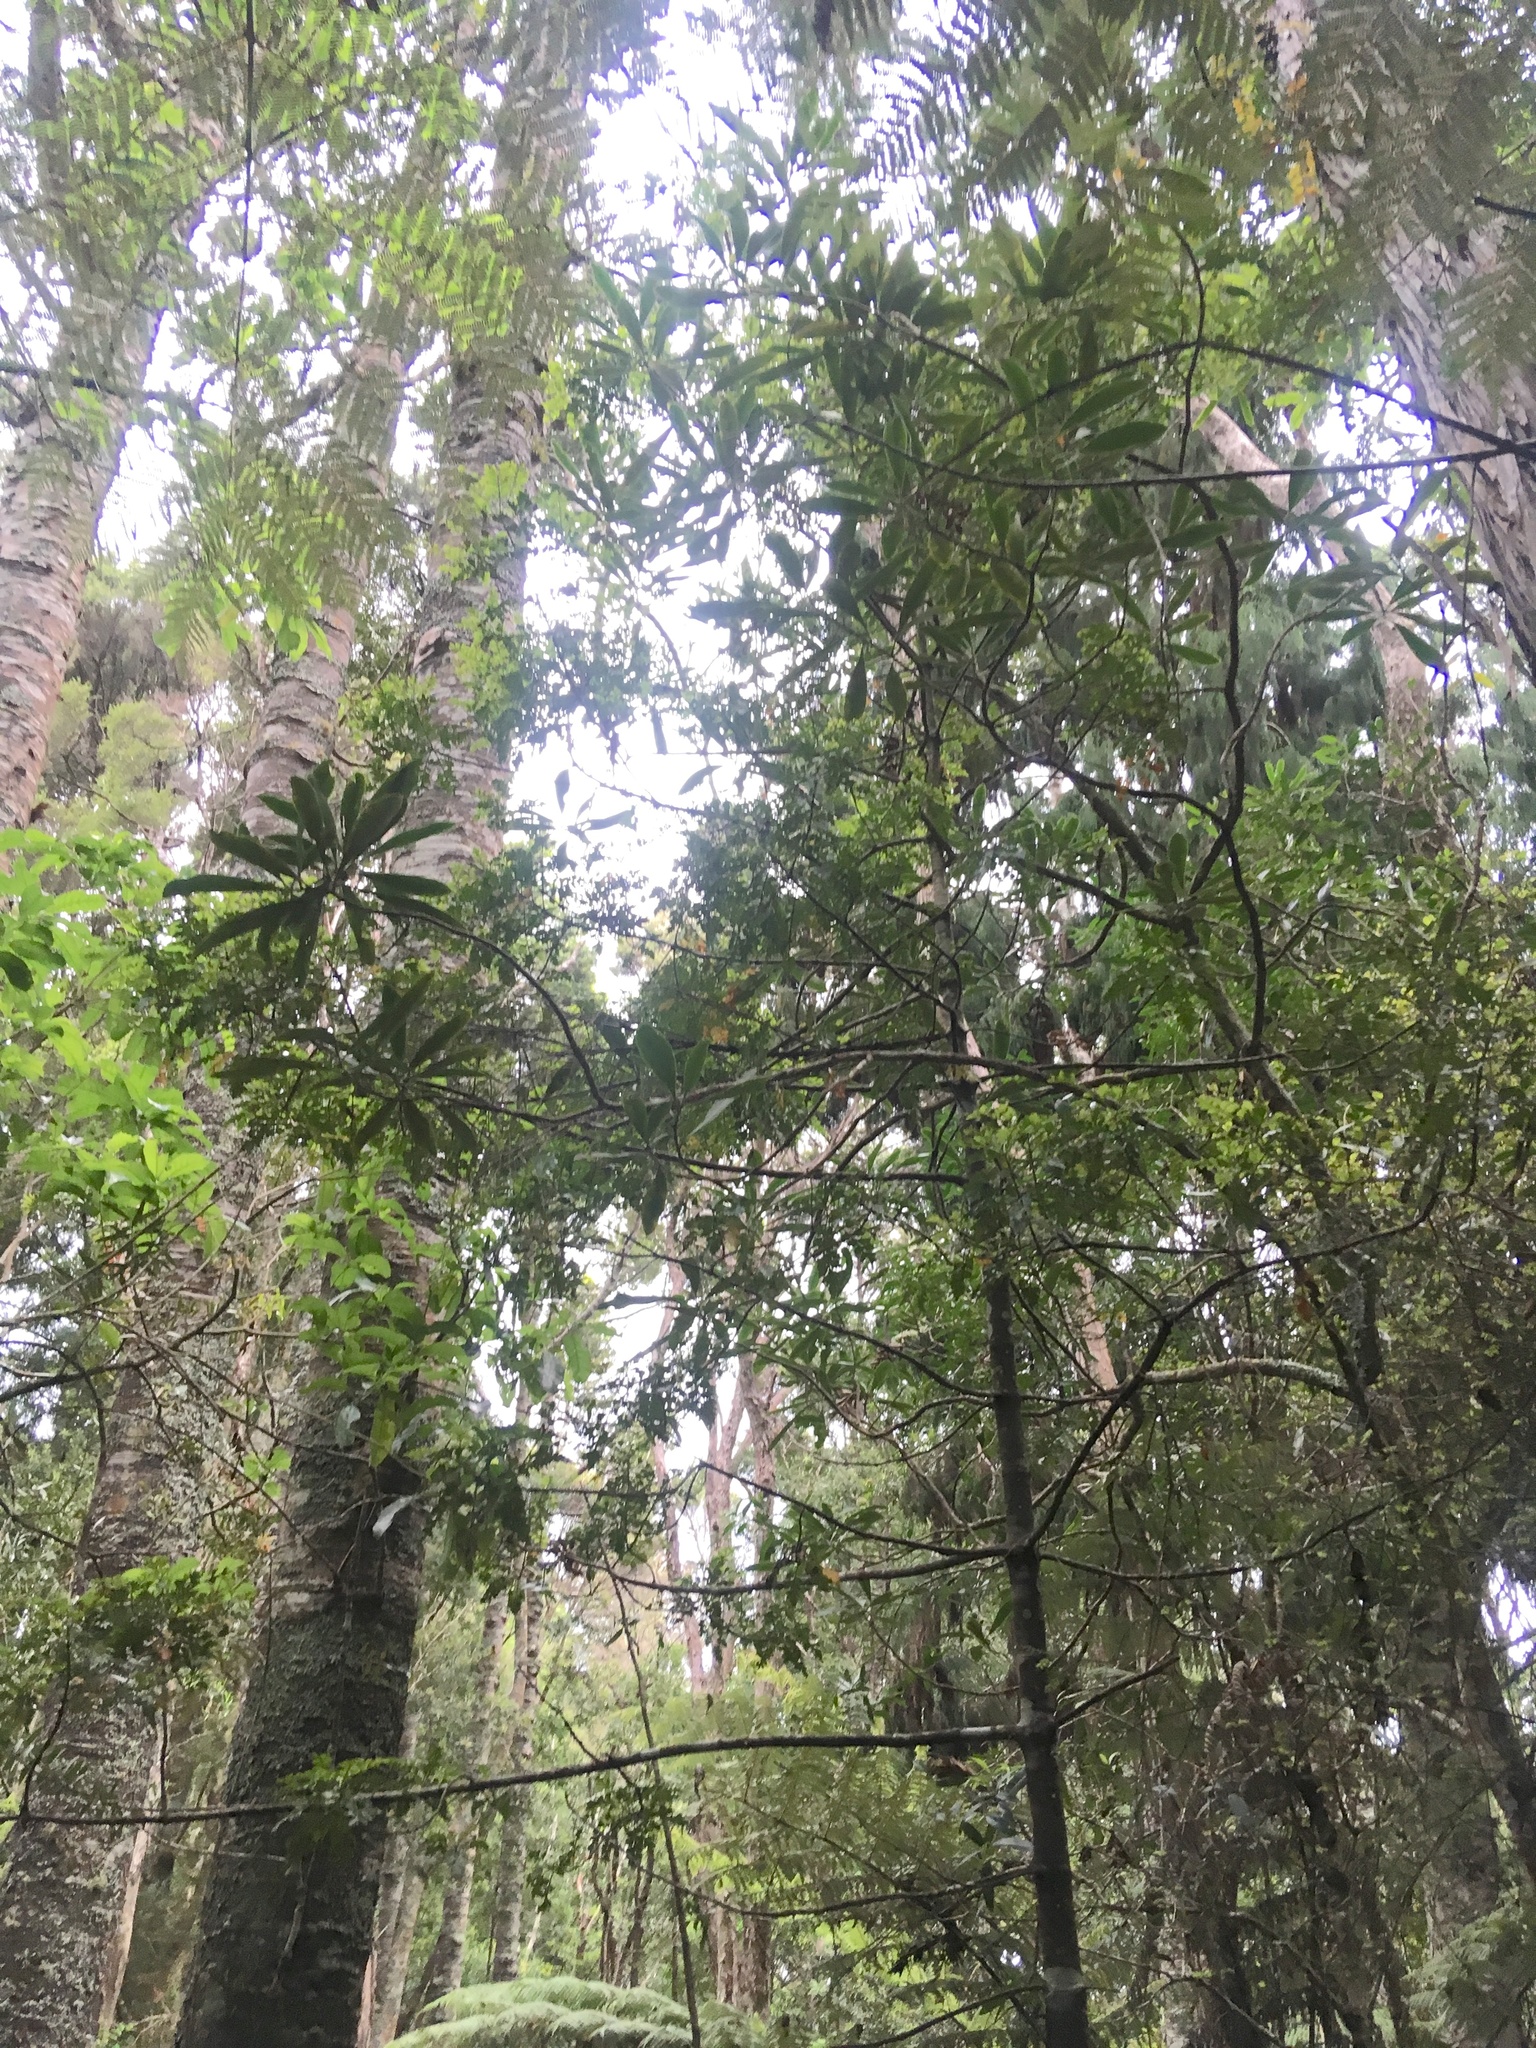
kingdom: Plantae
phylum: Tracheophyta
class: Magnoliopsida
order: Apiales
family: Araliaceae
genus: Pseudopanax
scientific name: Pseudopanax crassifolius
